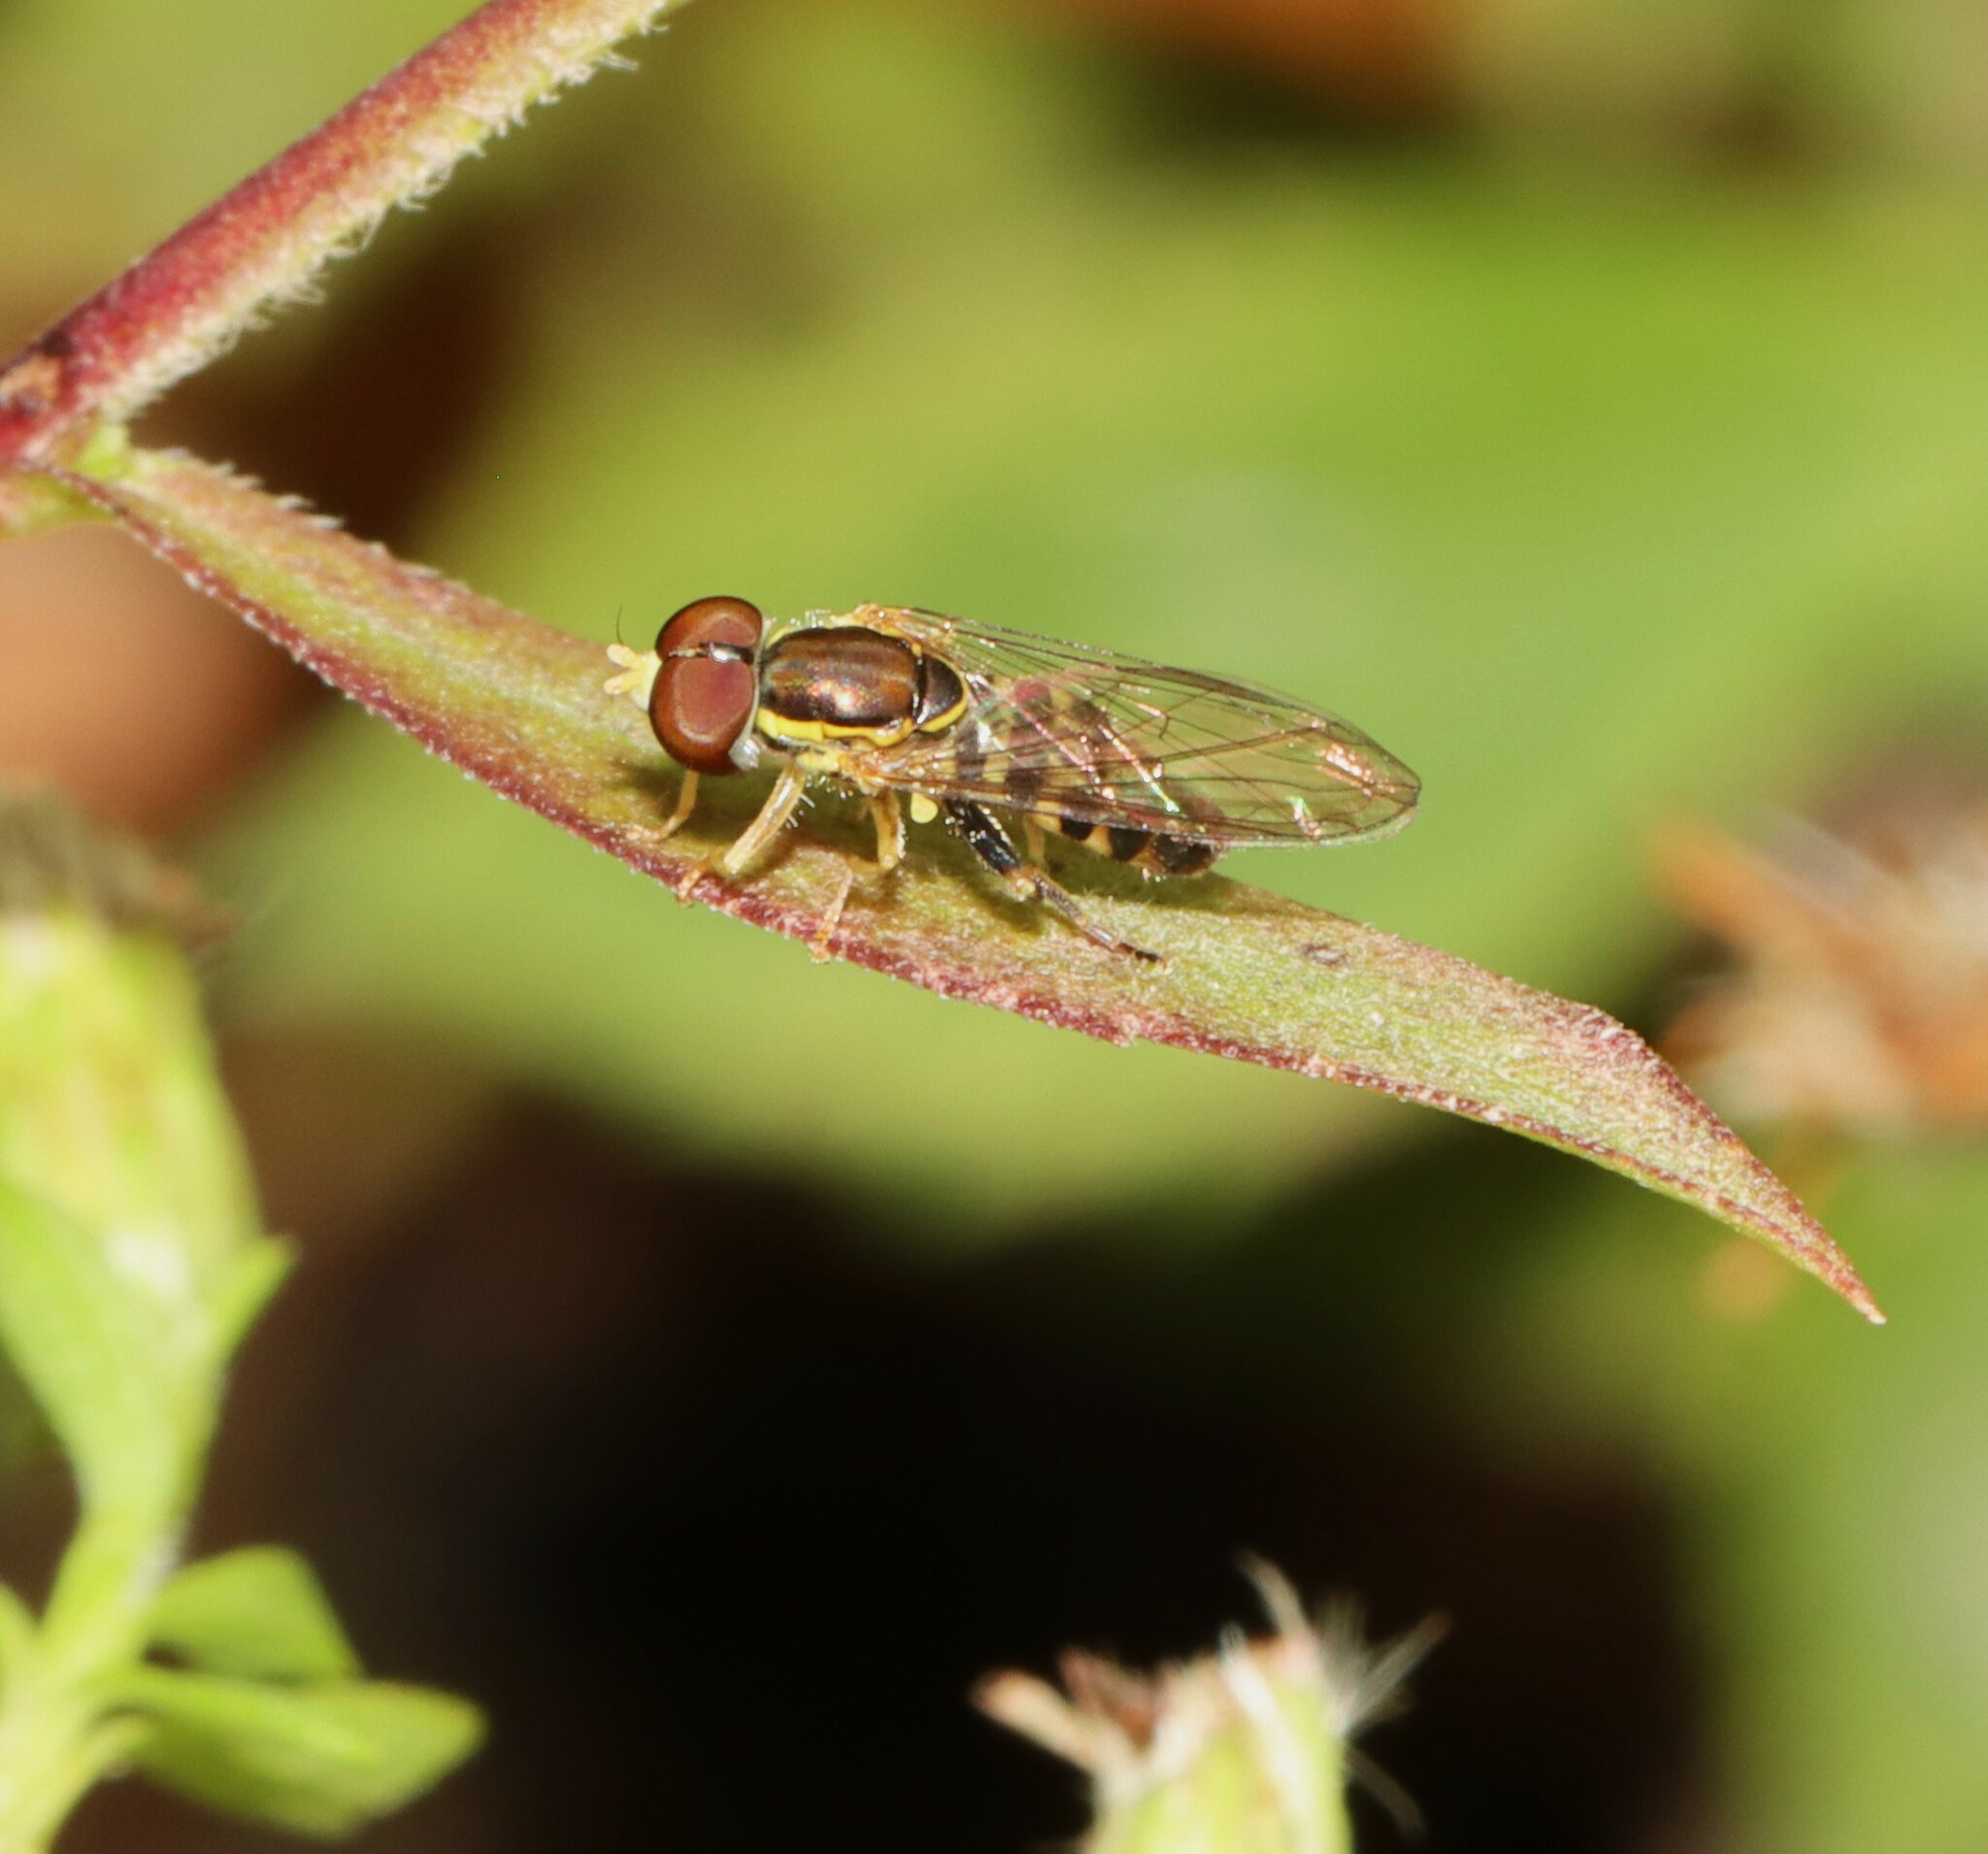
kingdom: Animalia
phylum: Arthropoda
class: Insecta
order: Diptera
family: Syrphidae
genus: Toxomerus
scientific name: Toxomerus geminatus
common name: Eastern calligrapher
